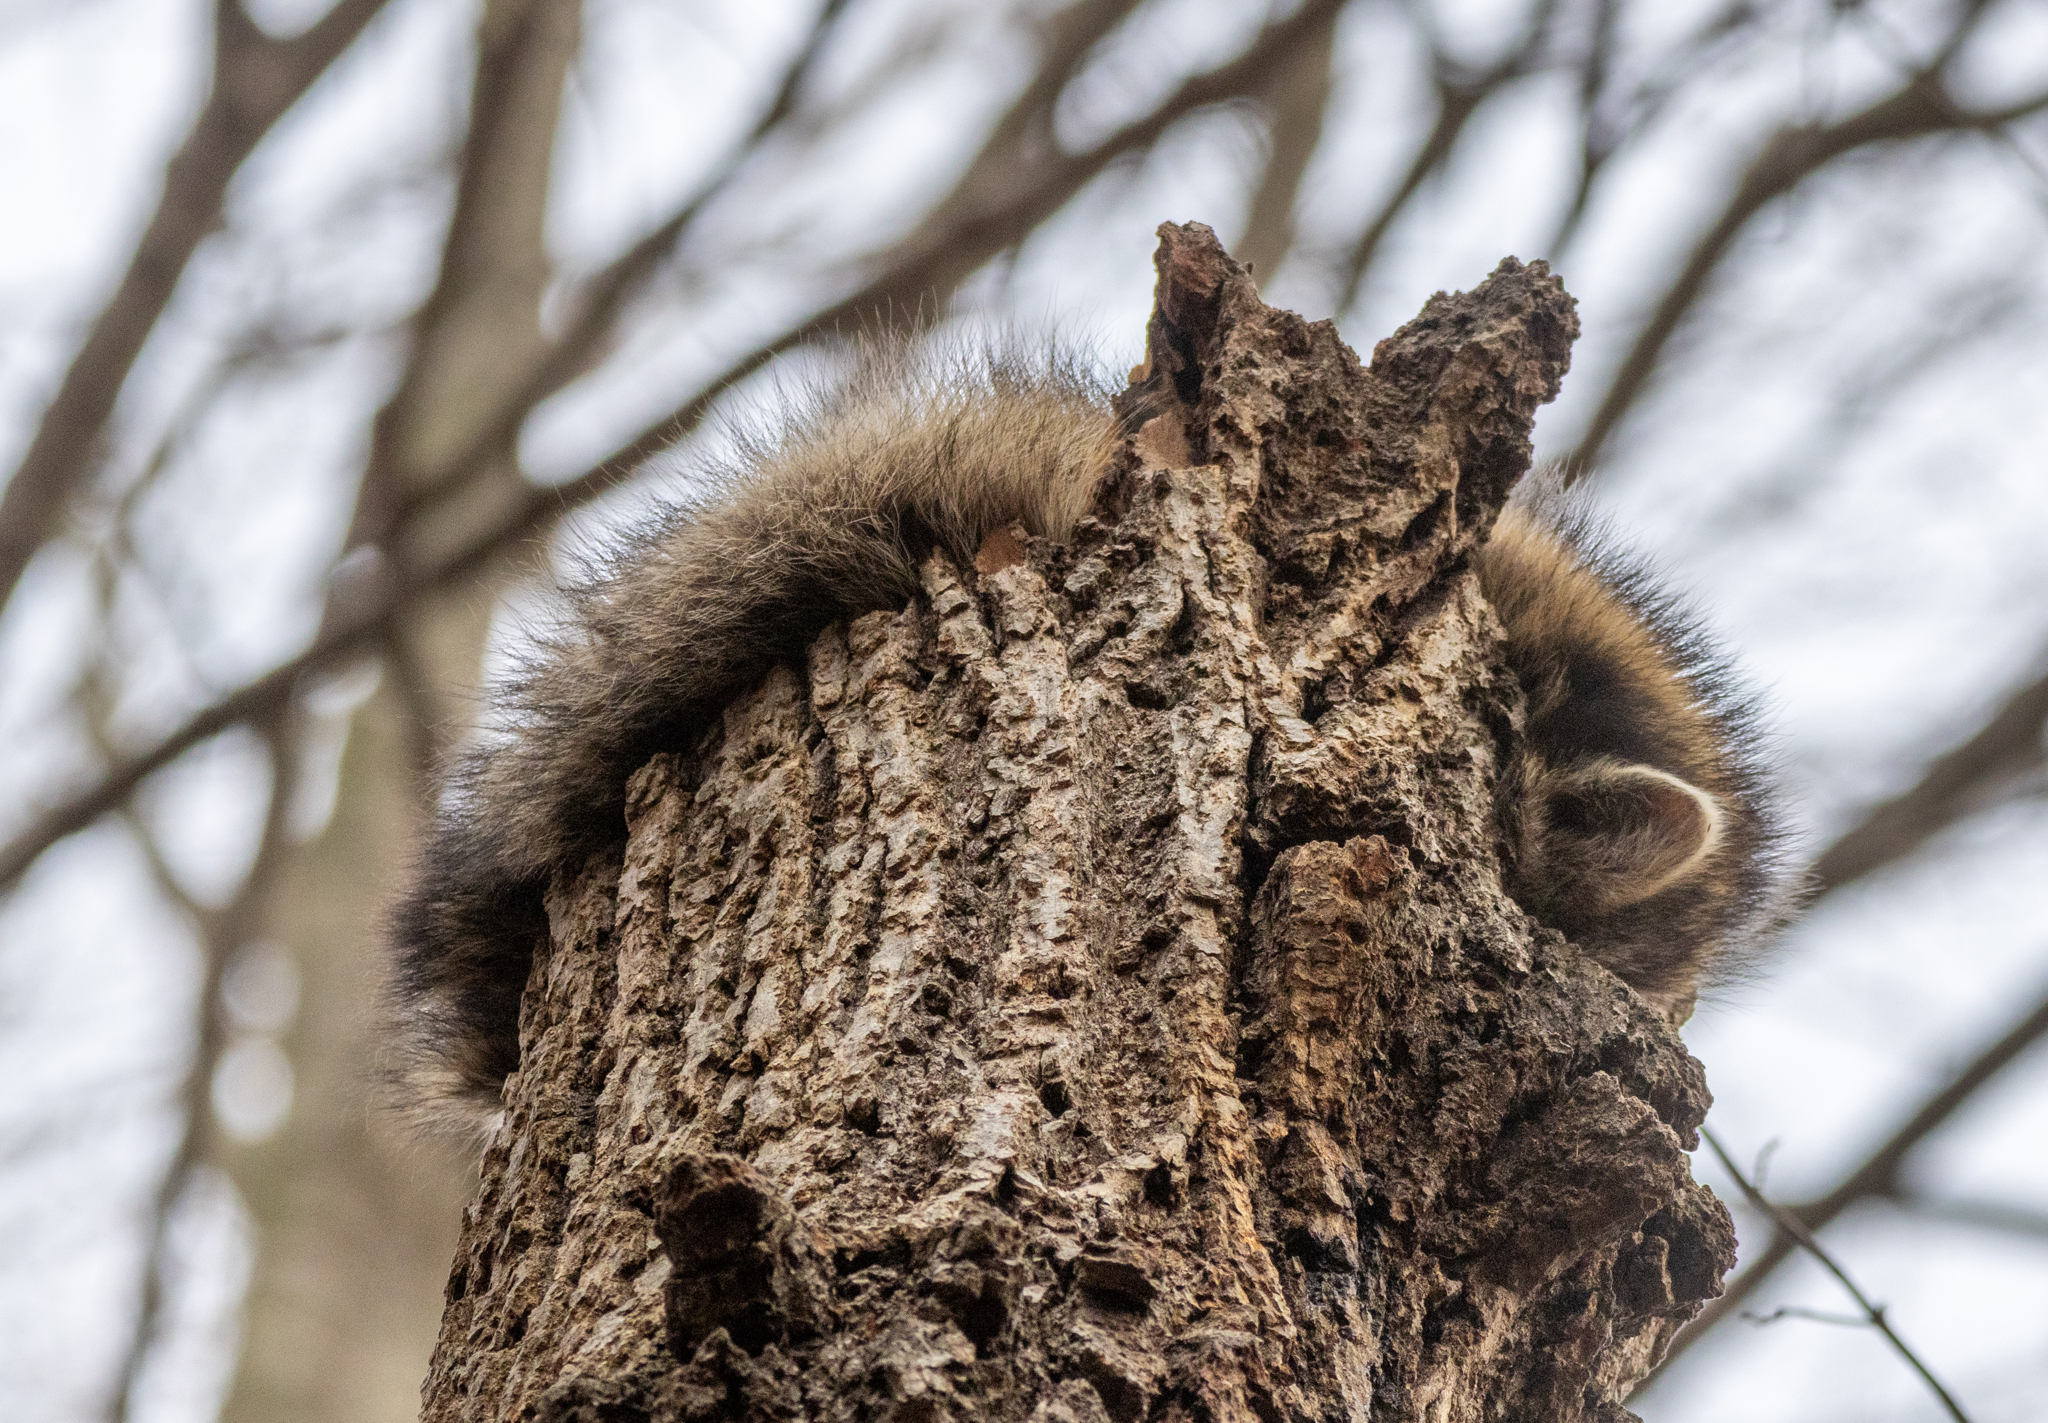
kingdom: Animalia
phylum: Chordata
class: Mammalia
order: Carnivora
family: Procyonidae
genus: Procyon
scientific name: Procyon lotor
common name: Raccoon
